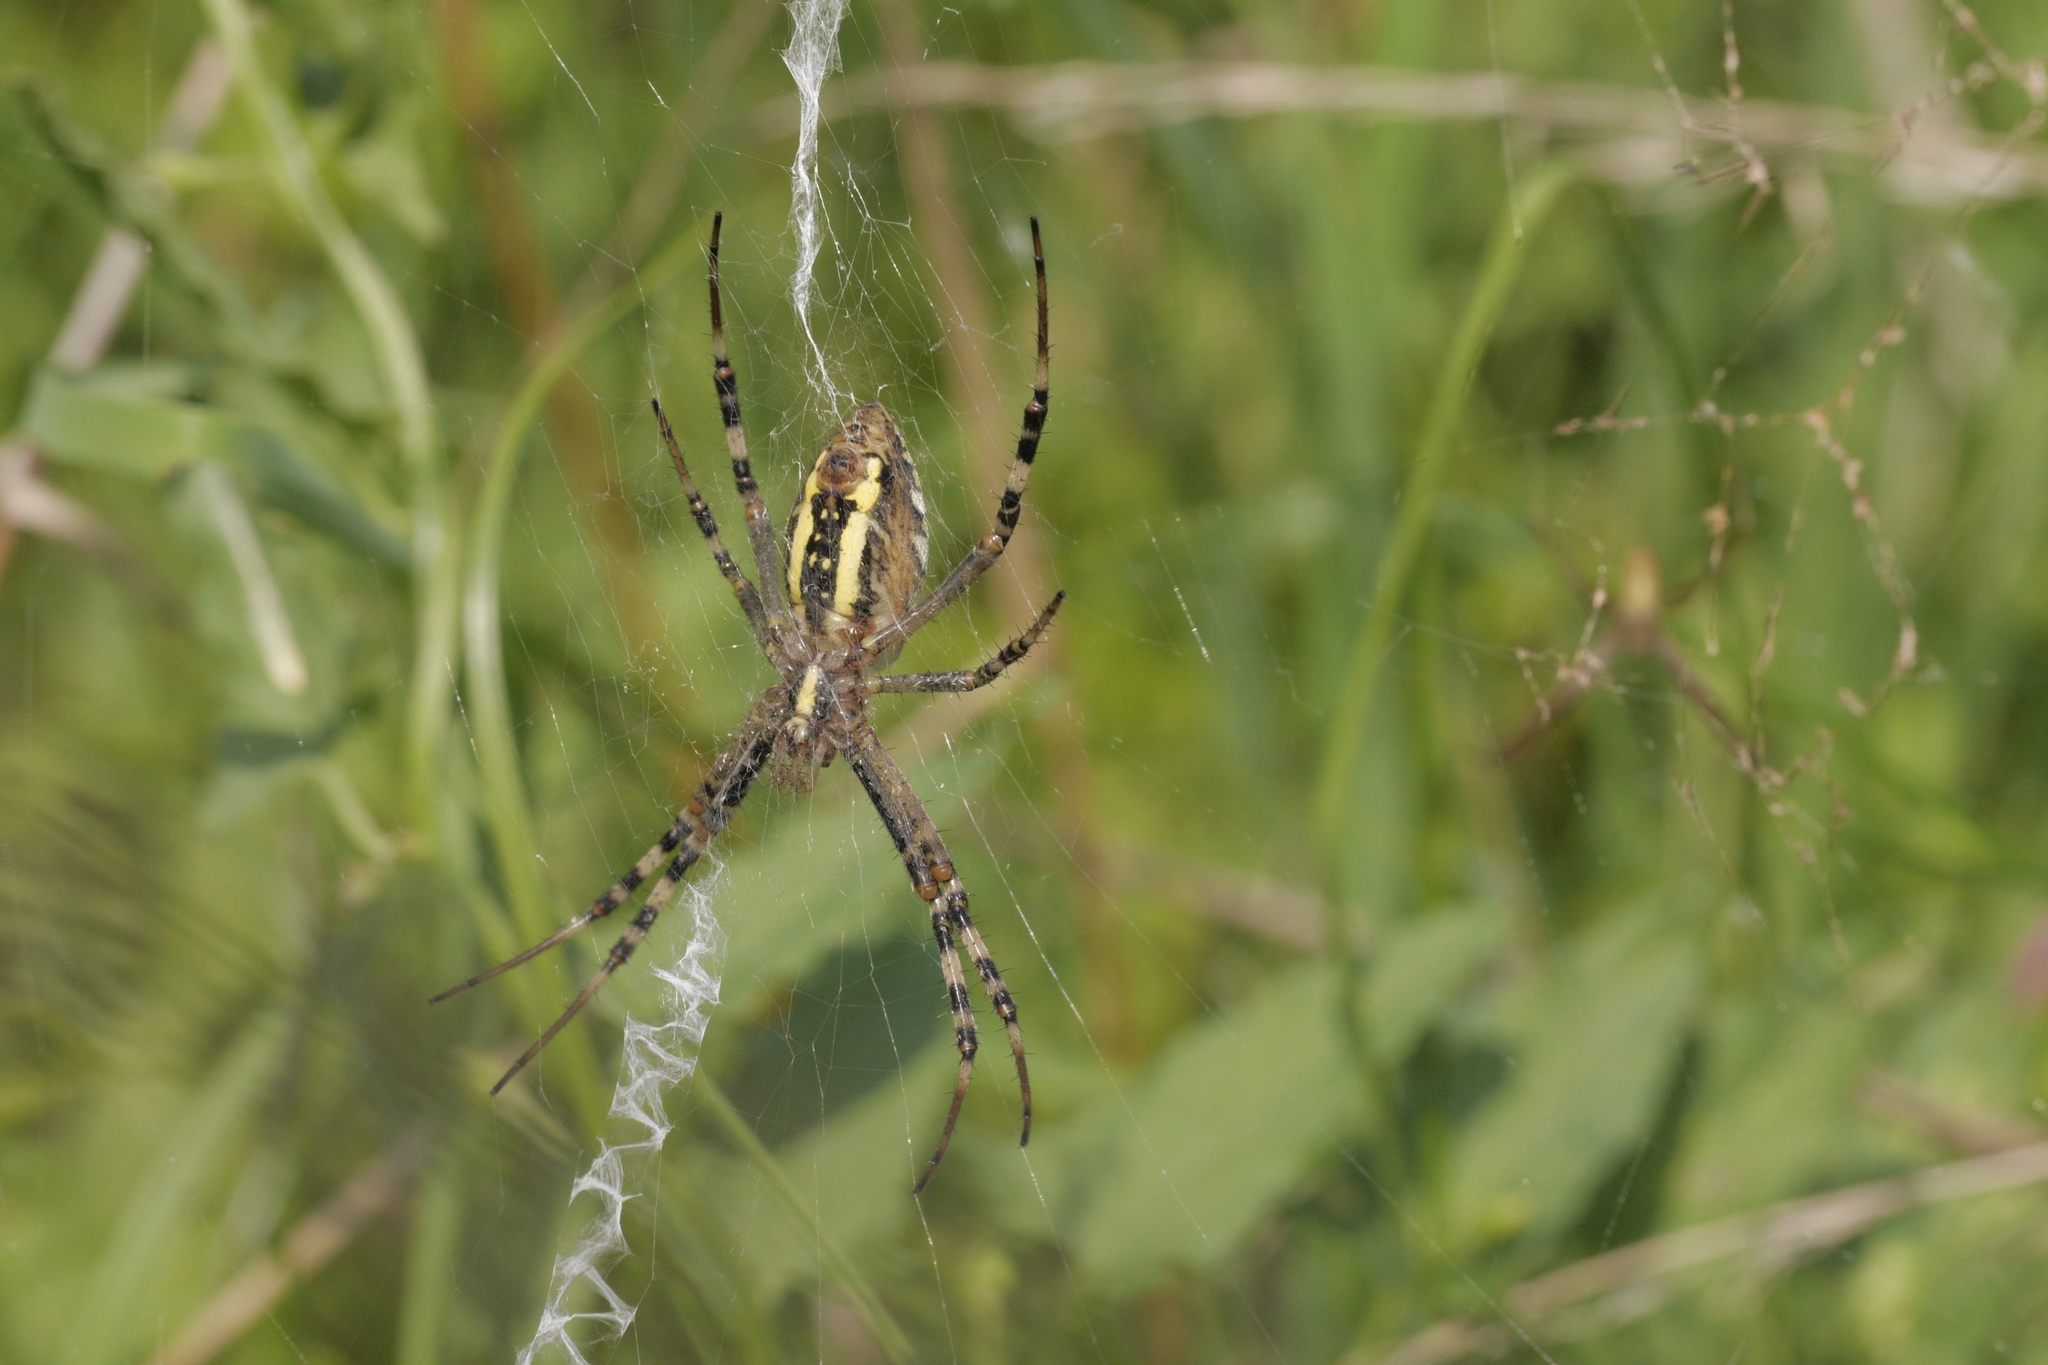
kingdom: Animalia
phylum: Arthropoda
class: Arachnida
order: Araneae
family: Araneidae
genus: Argiope
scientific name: Argiope bruennichi
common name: Wasp spider
